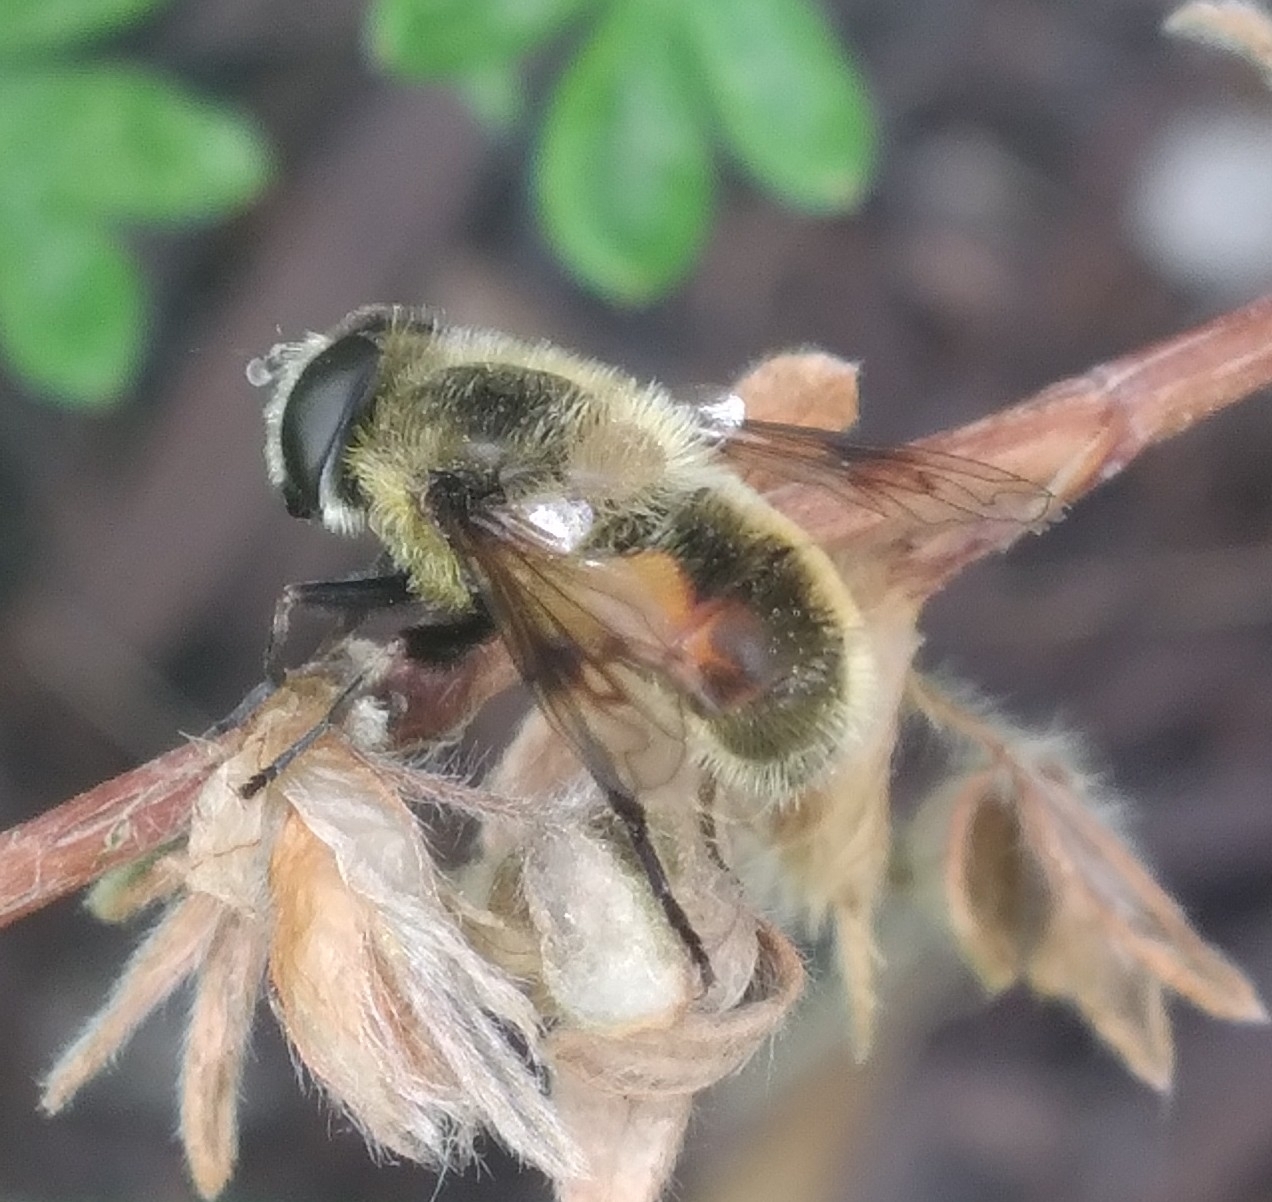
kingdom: Animalia
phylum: Arthropoda
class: Insecta
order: Diptera
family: Syrphidae
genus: Eristalis
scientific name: Eristalis anthophorina
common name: Orange-spotted drone fly
